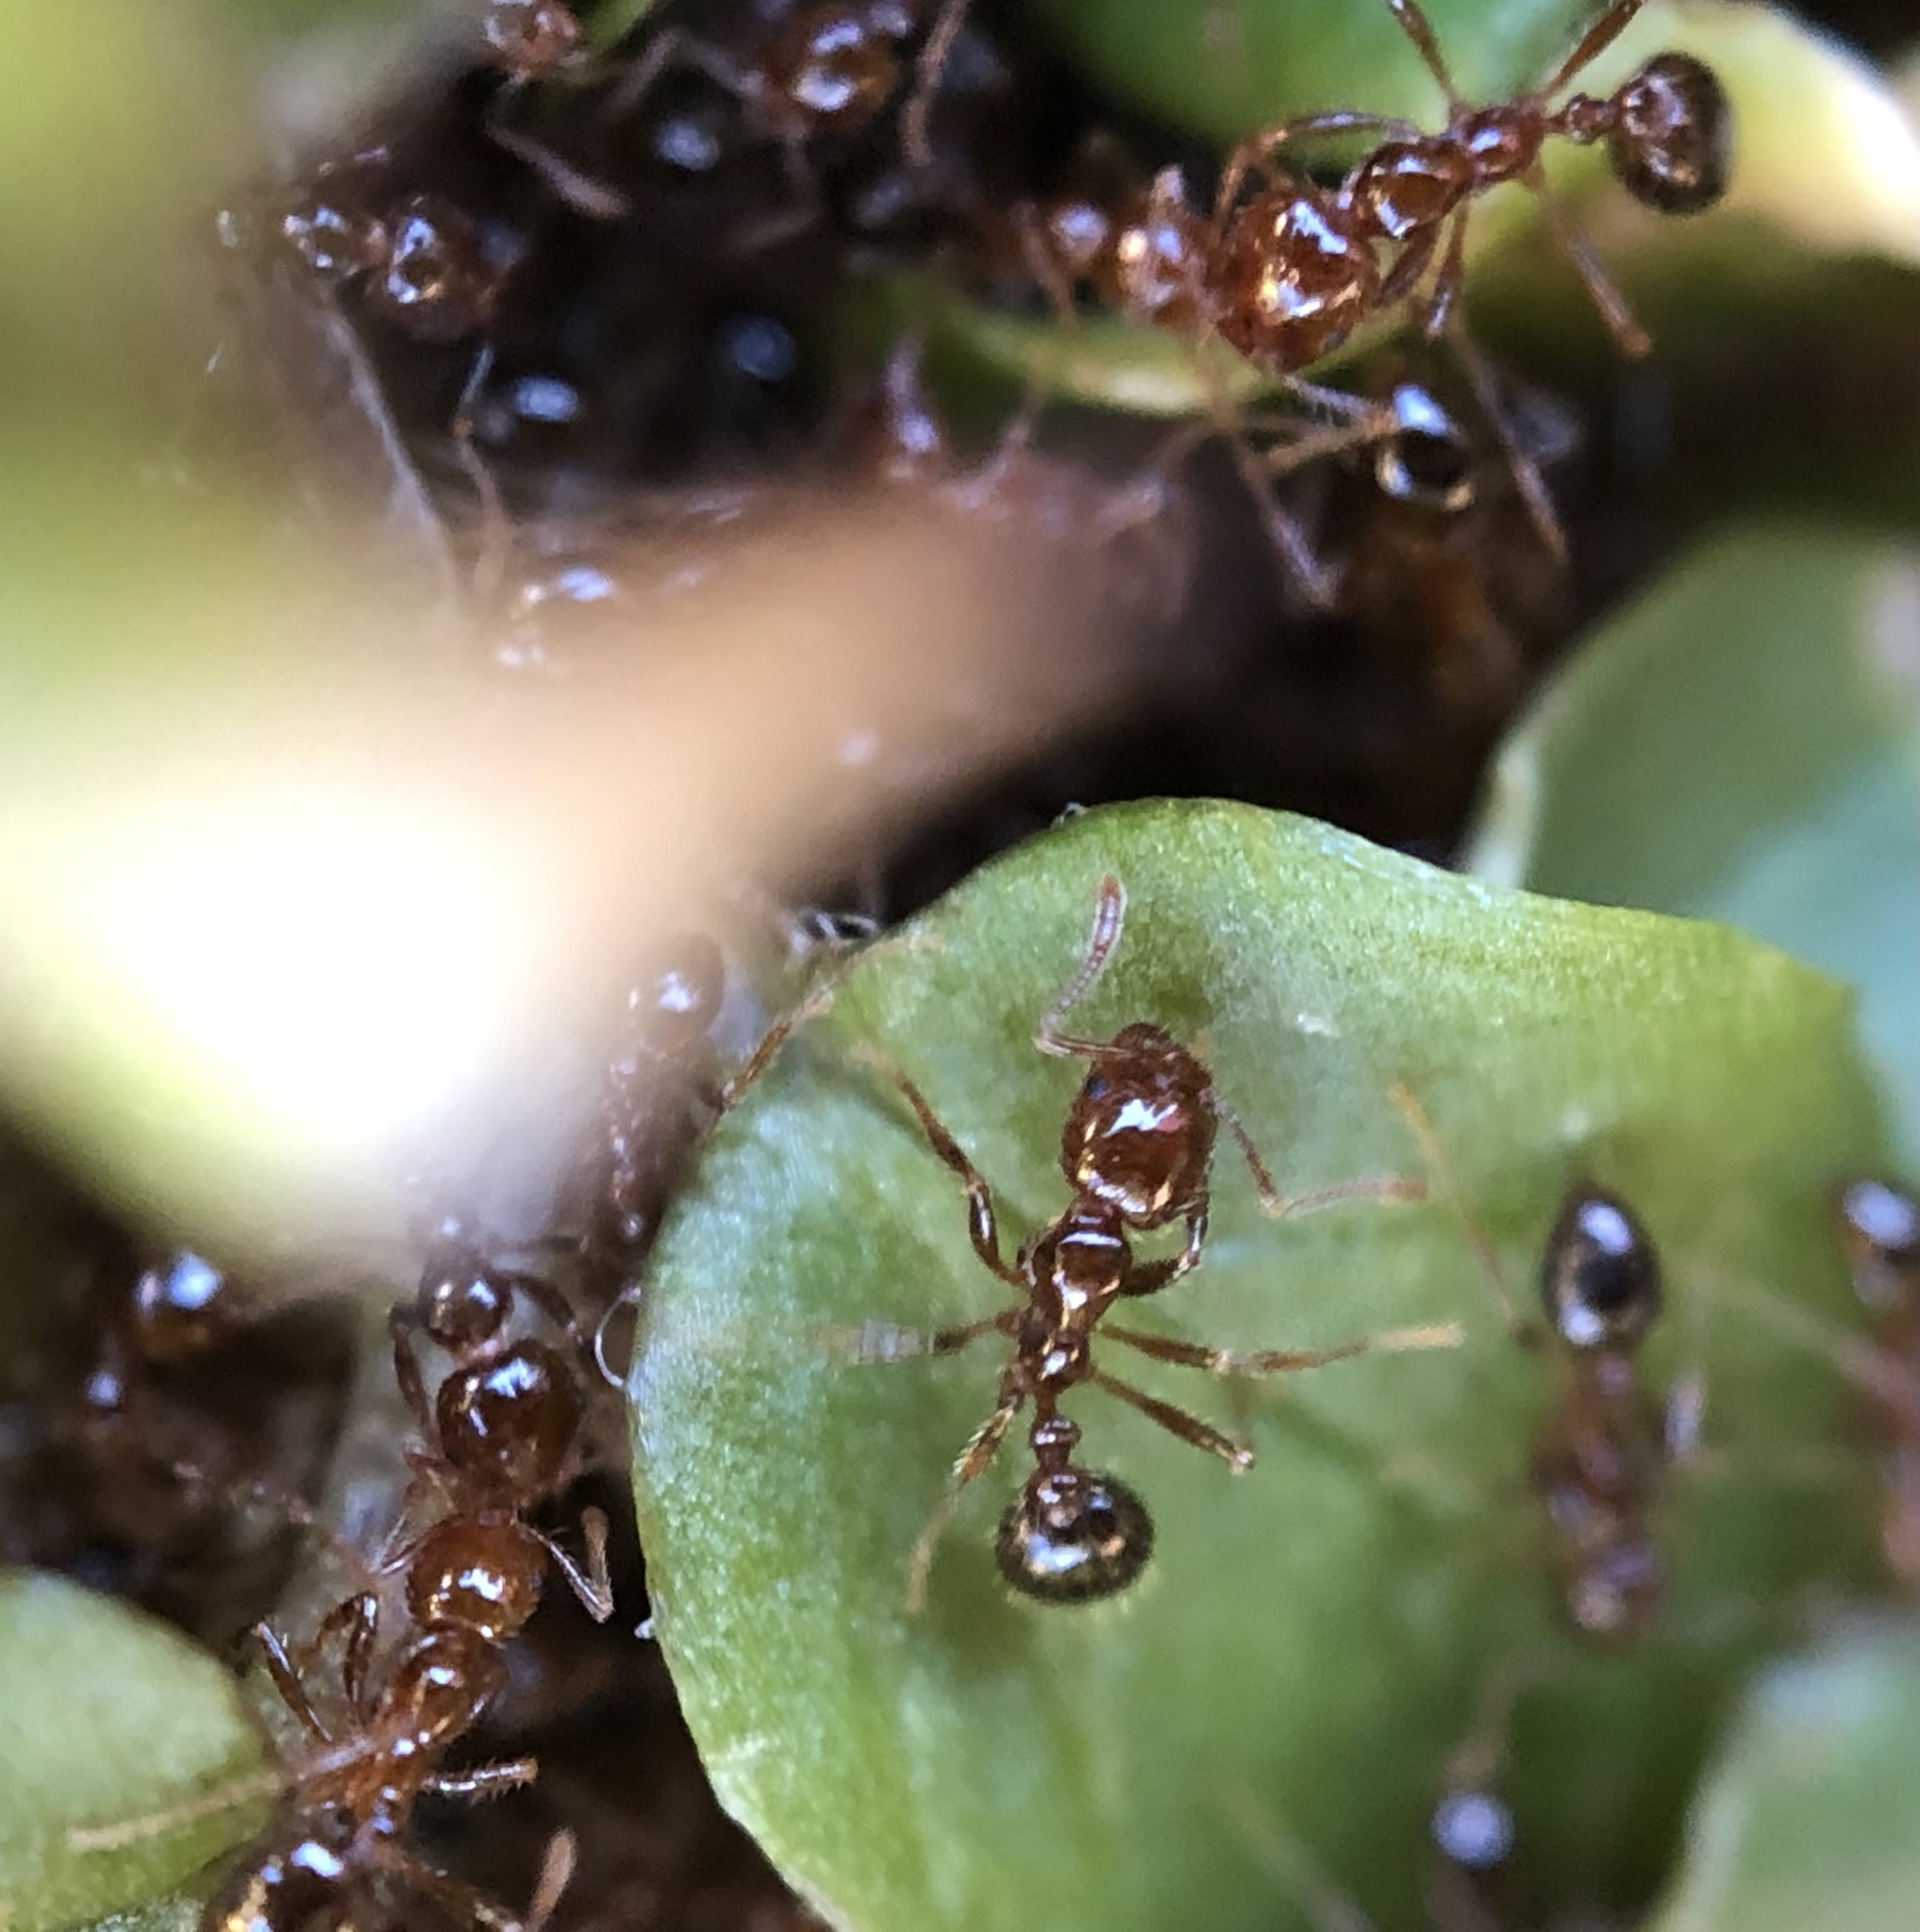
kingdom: Animalia
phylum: Arthropoda
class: Insecta
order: Hymenoptera
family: Formicidae
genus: Solenopsis
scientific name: Solenopsis invicta
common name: Red imported fire ant
